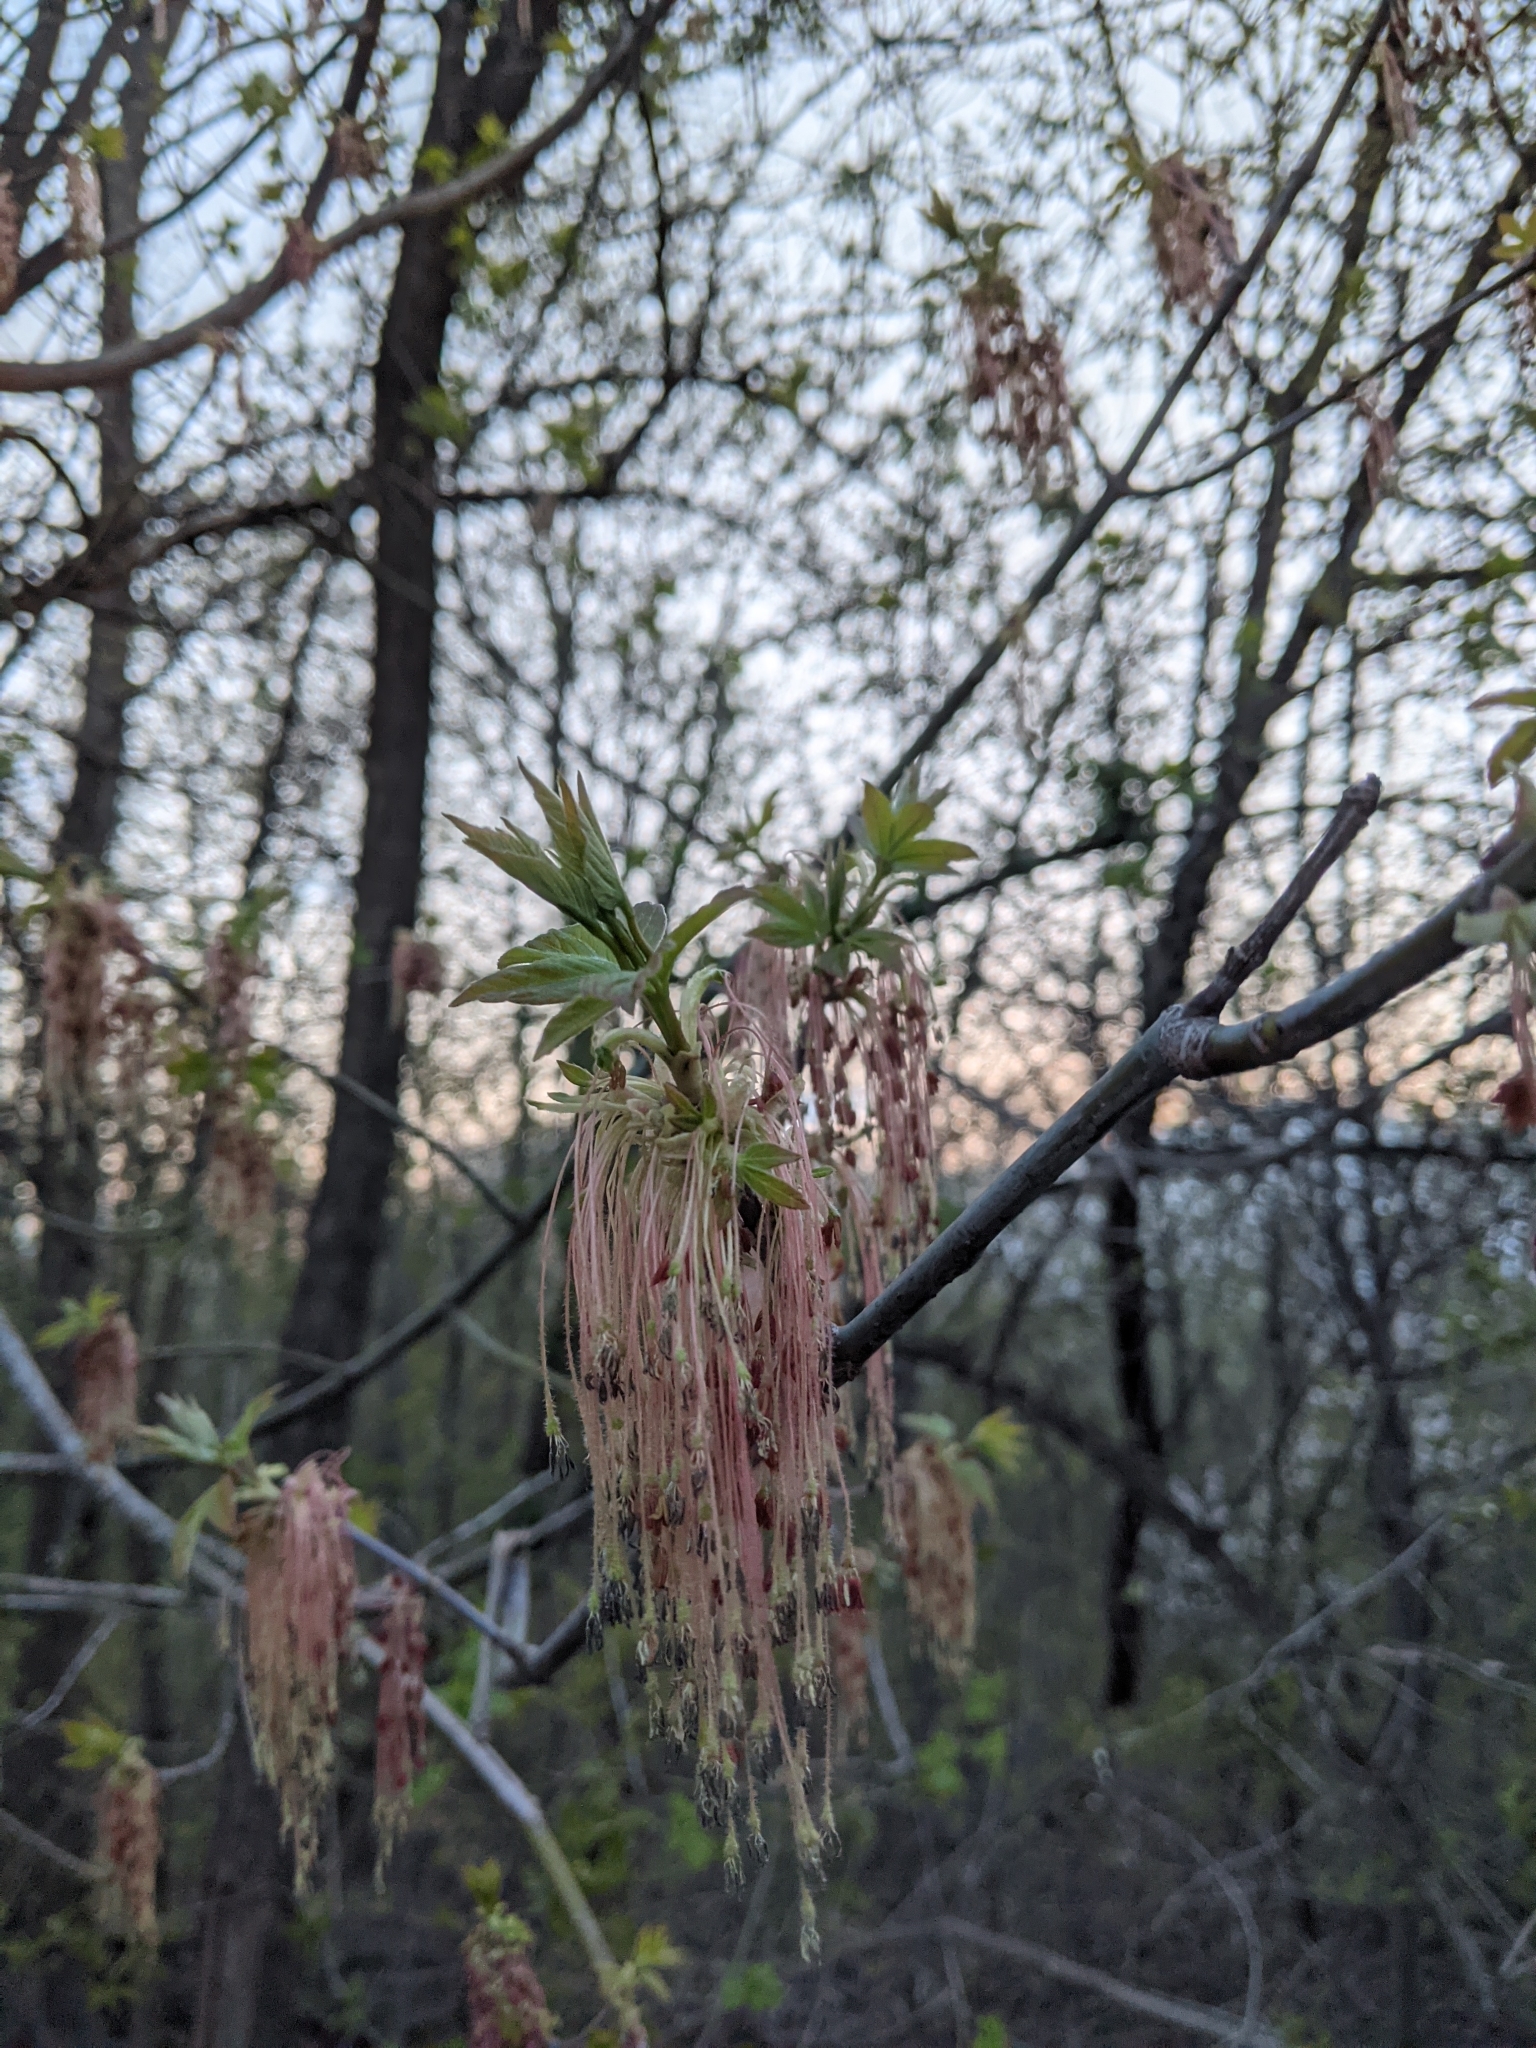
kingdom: Plantae
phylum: Tracheophyta
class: Magnoliopsida
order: Sapindales
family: Sapindaceae
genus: Acer
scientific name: Acer negundo
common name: Ashleaf maple
